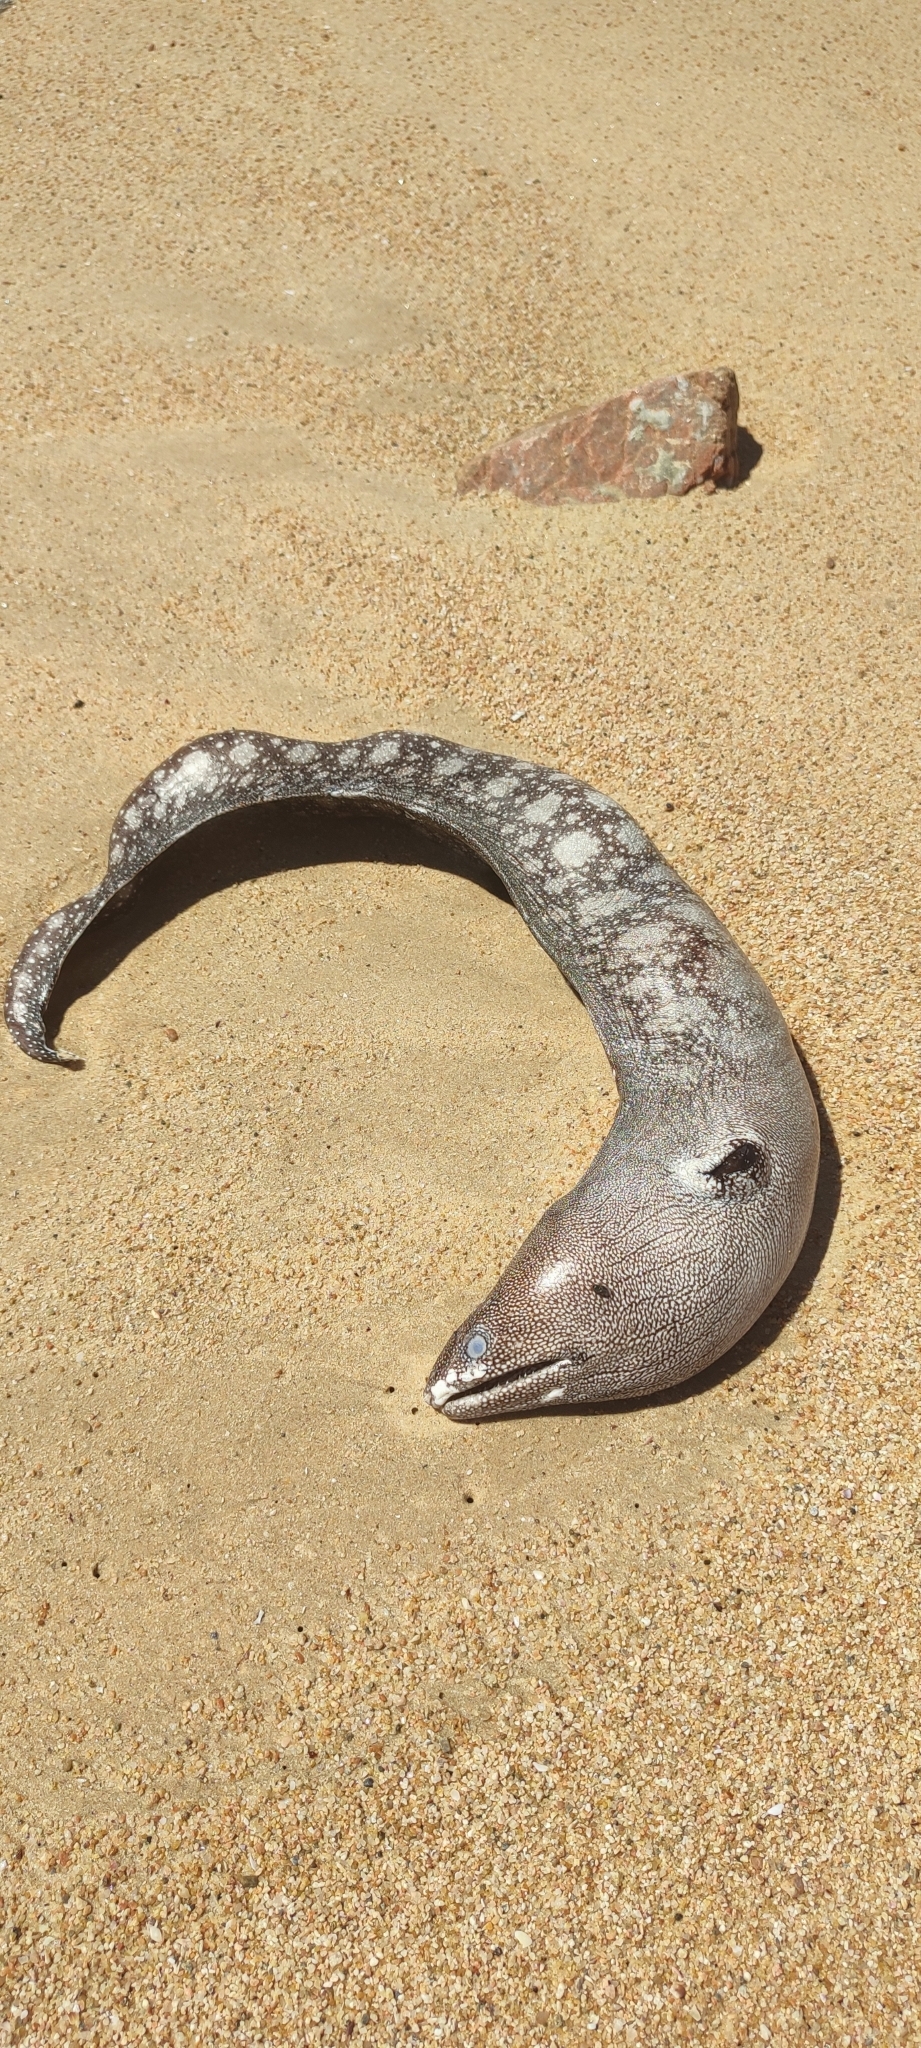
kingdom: Animalia
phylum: Chordata
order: Anguilliformes
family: Muraenidae
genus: Muraena
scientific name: Muraena argus
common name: Argus moray
